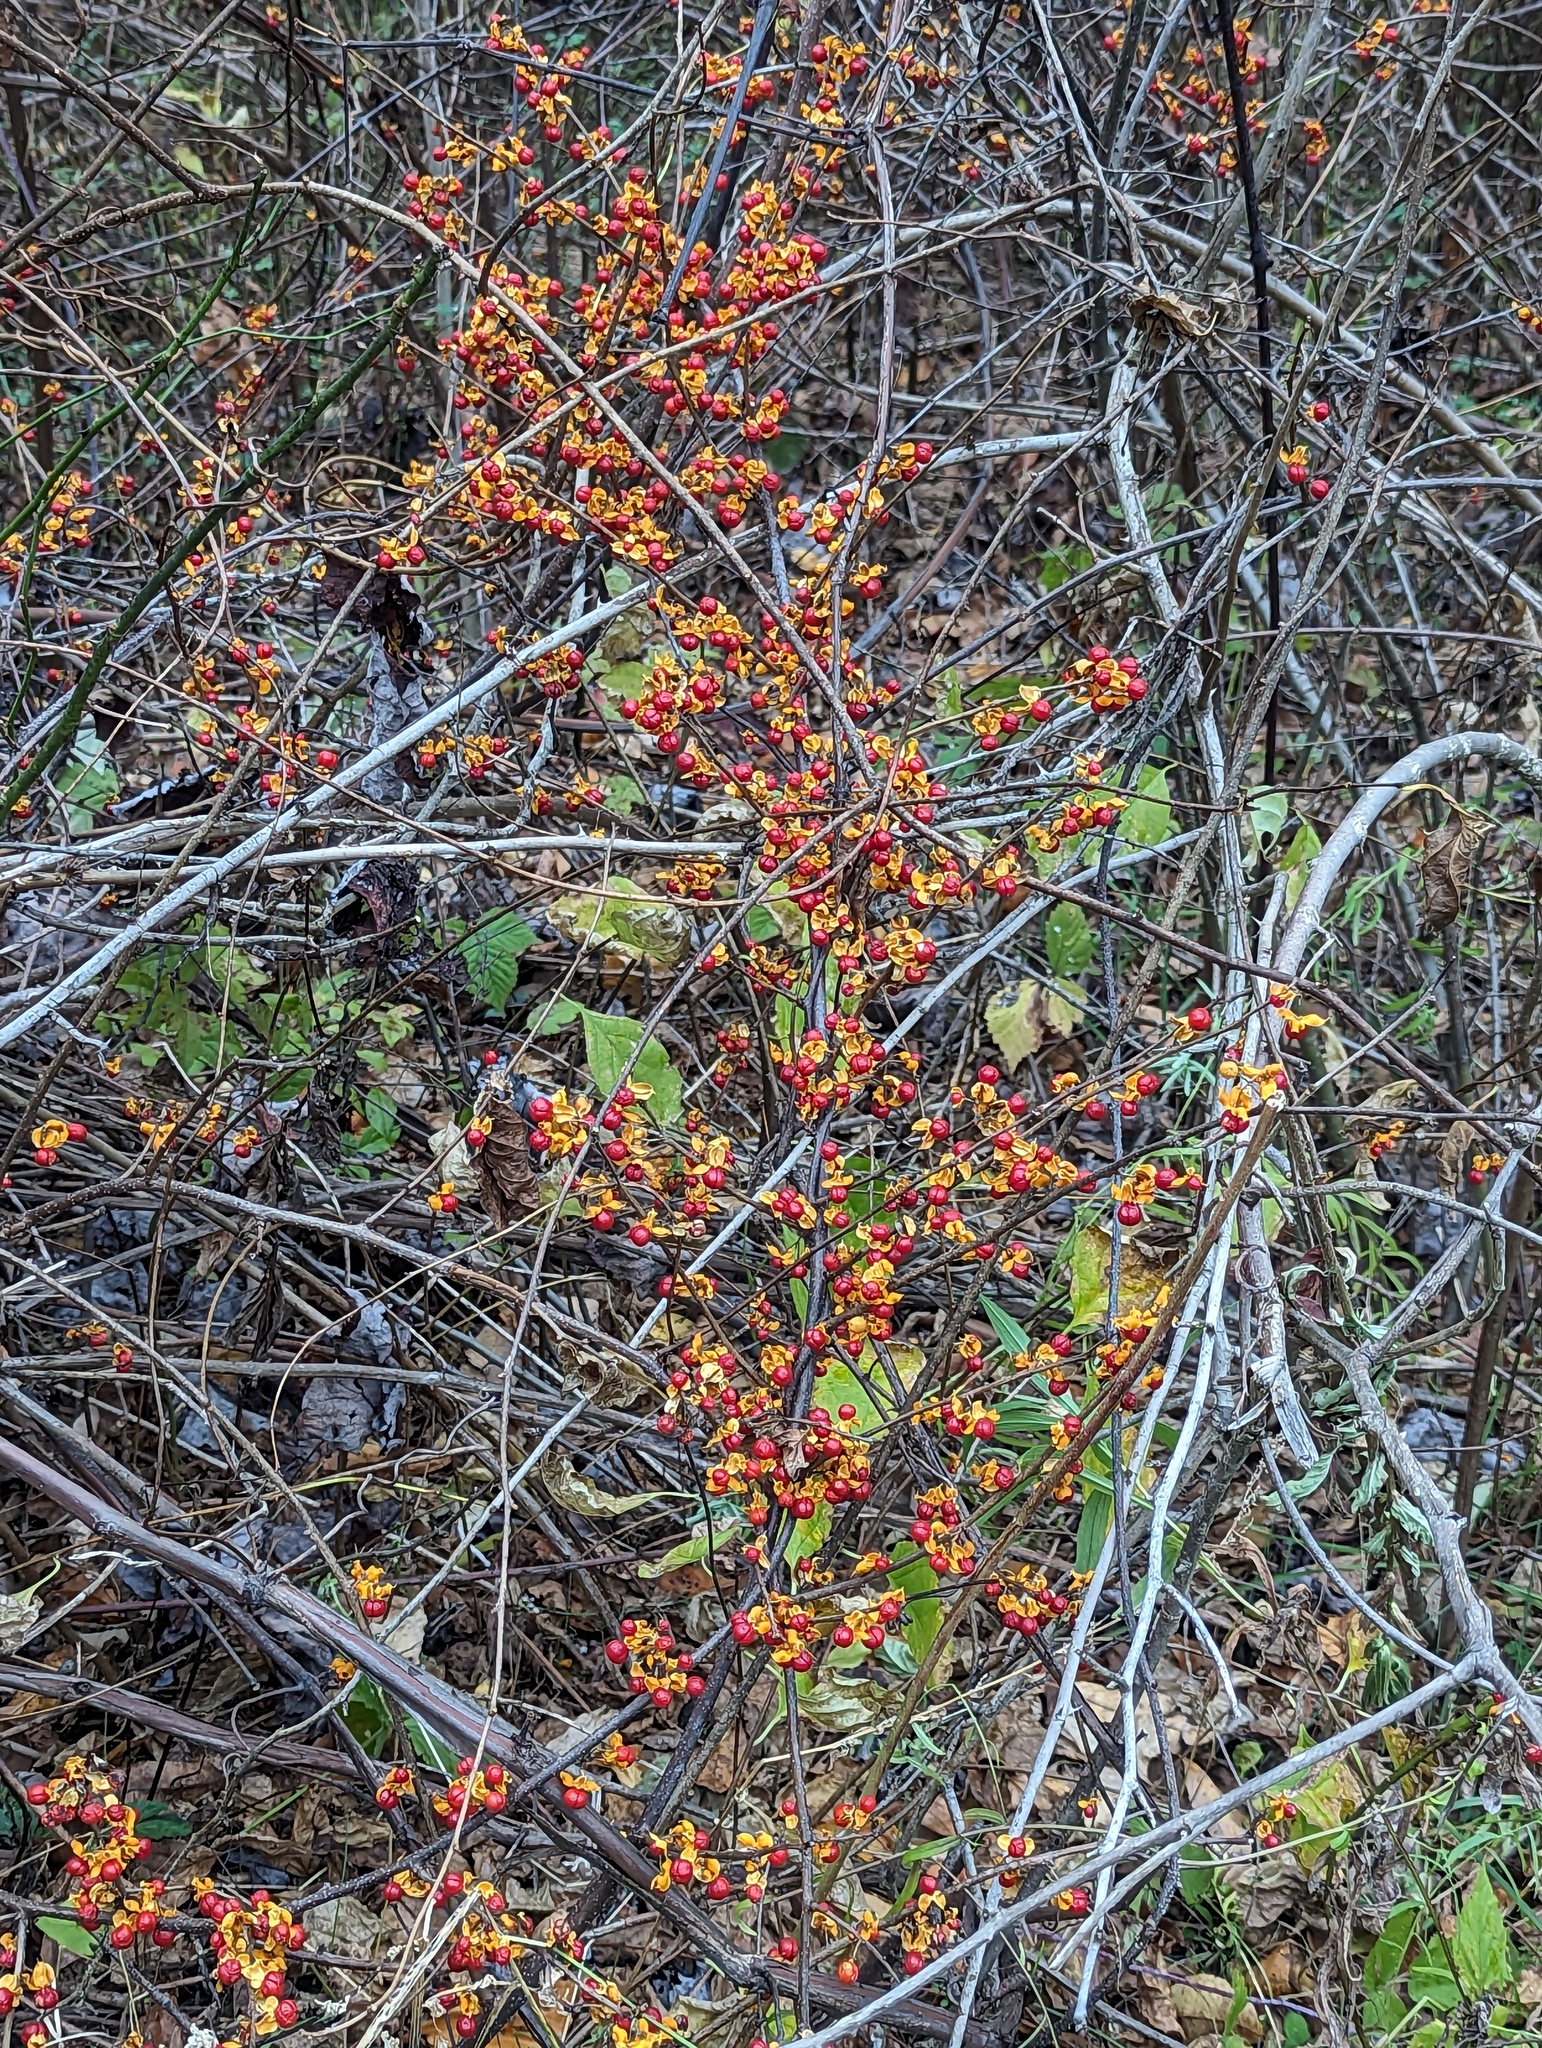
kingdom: Plantae
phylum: Tracheophyta
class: Magnoliopsida
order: Celastrales
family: Celastraceae
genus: Celastrus
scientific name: Celastrus orbiculatus
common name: Oriental bittersweet
